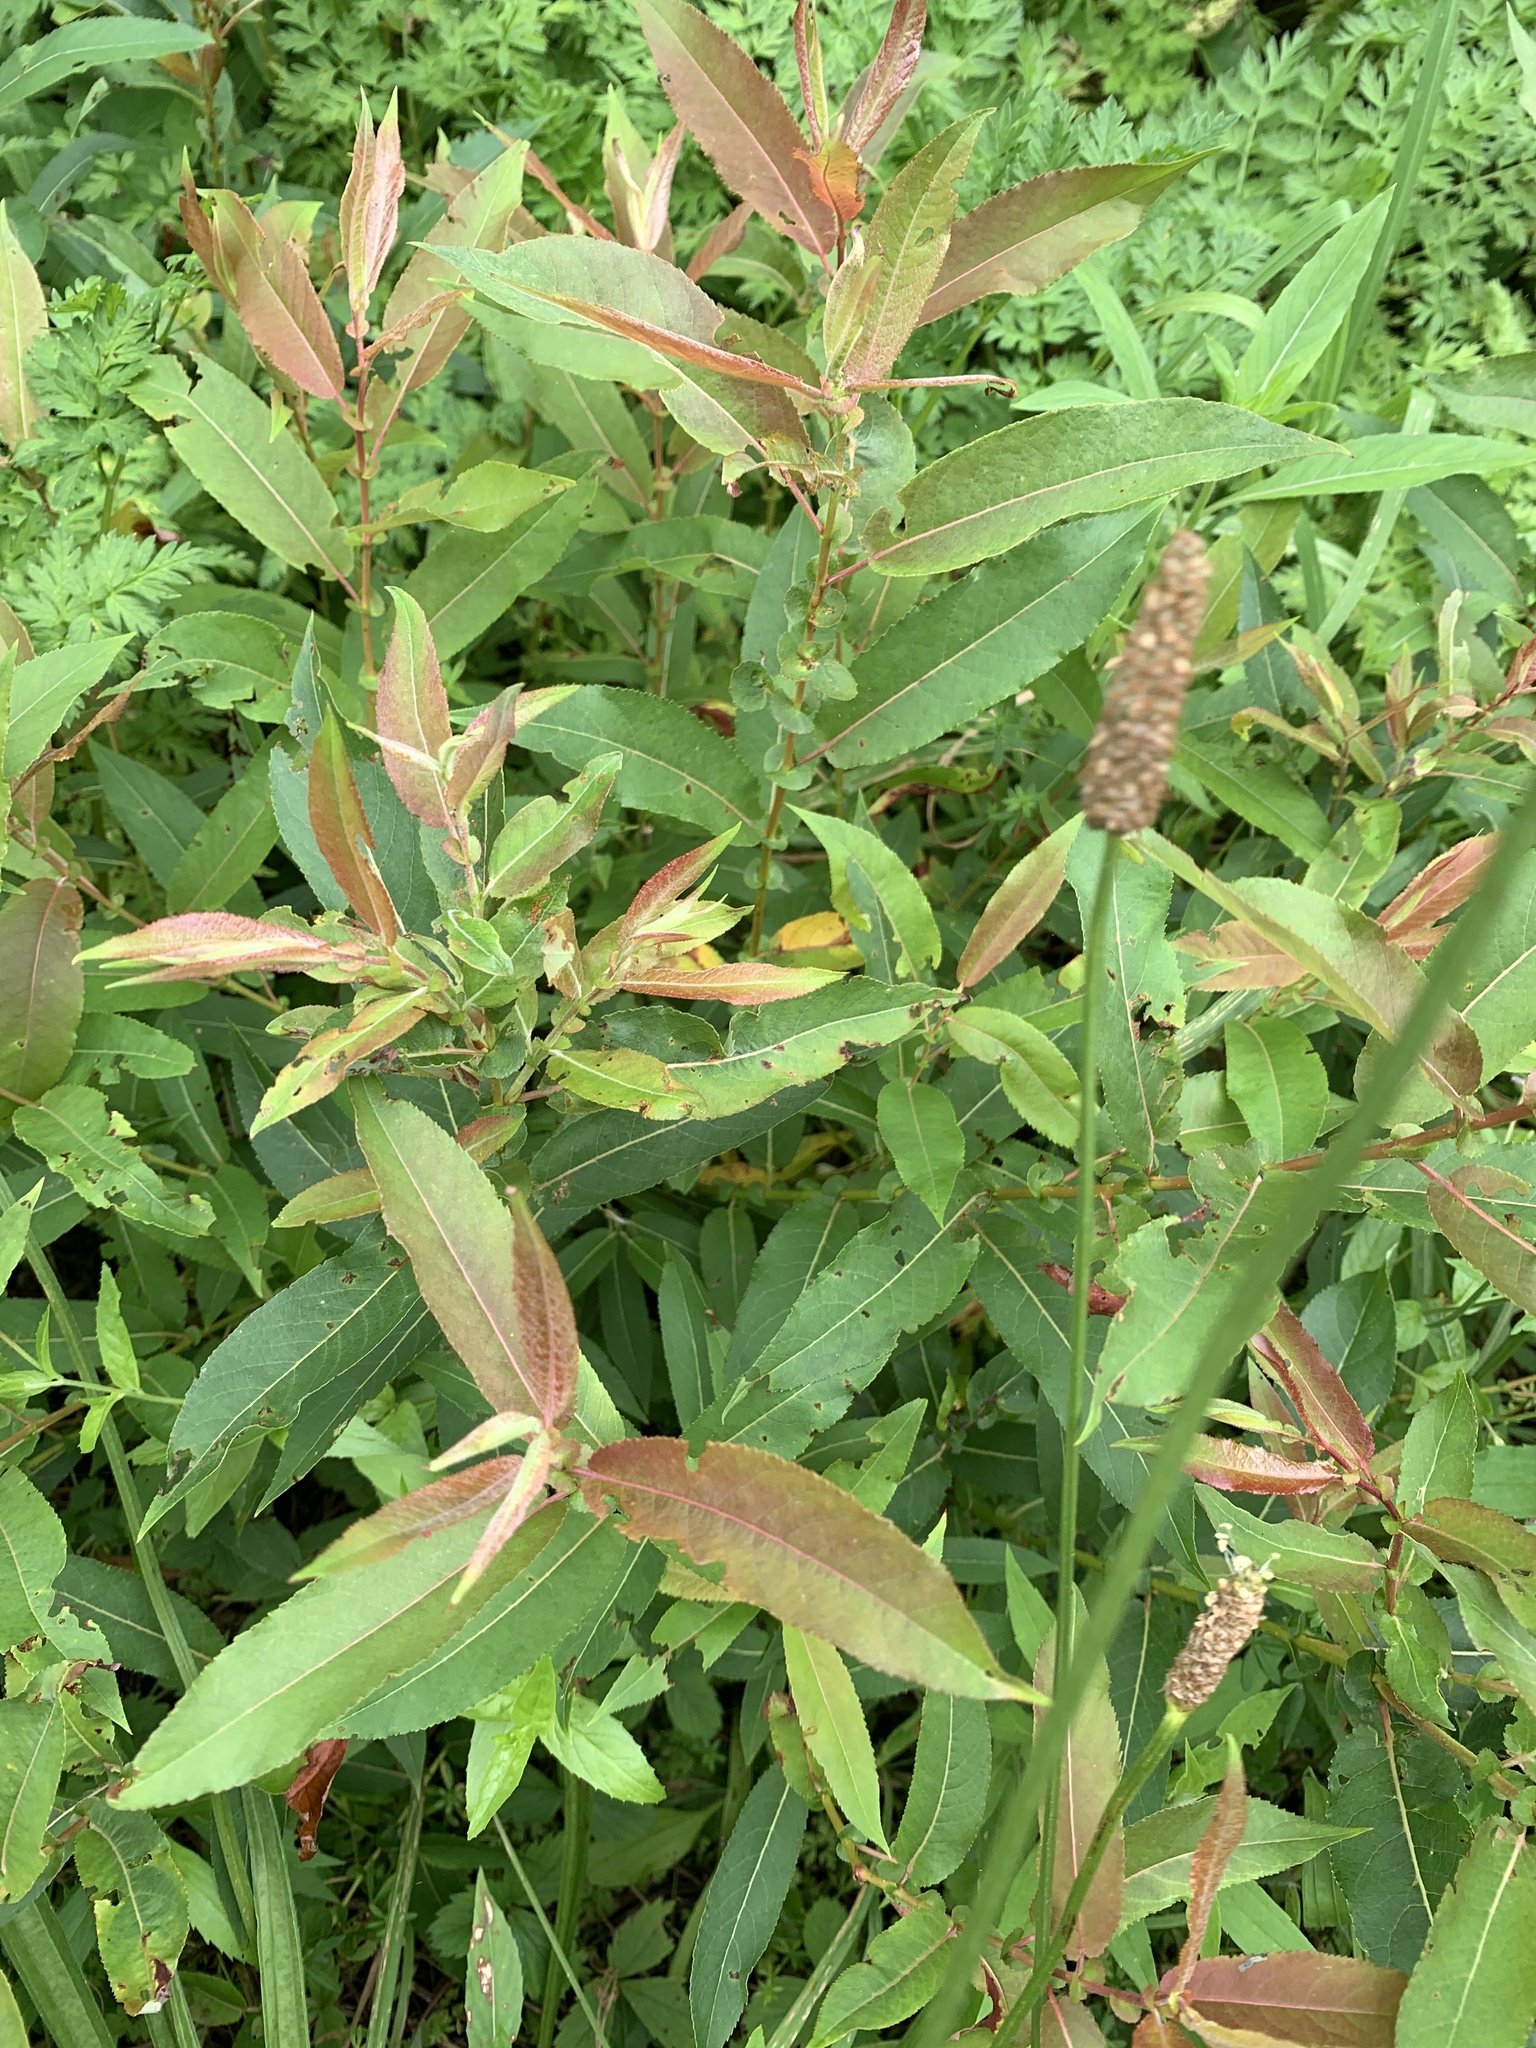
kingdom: Plantae
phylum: Tracheophyta
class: Magnoliopsida
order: Malpighiales
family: Salicaceae
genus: Salix
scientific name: Salix eriocephala
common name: Heart-leaved willow
